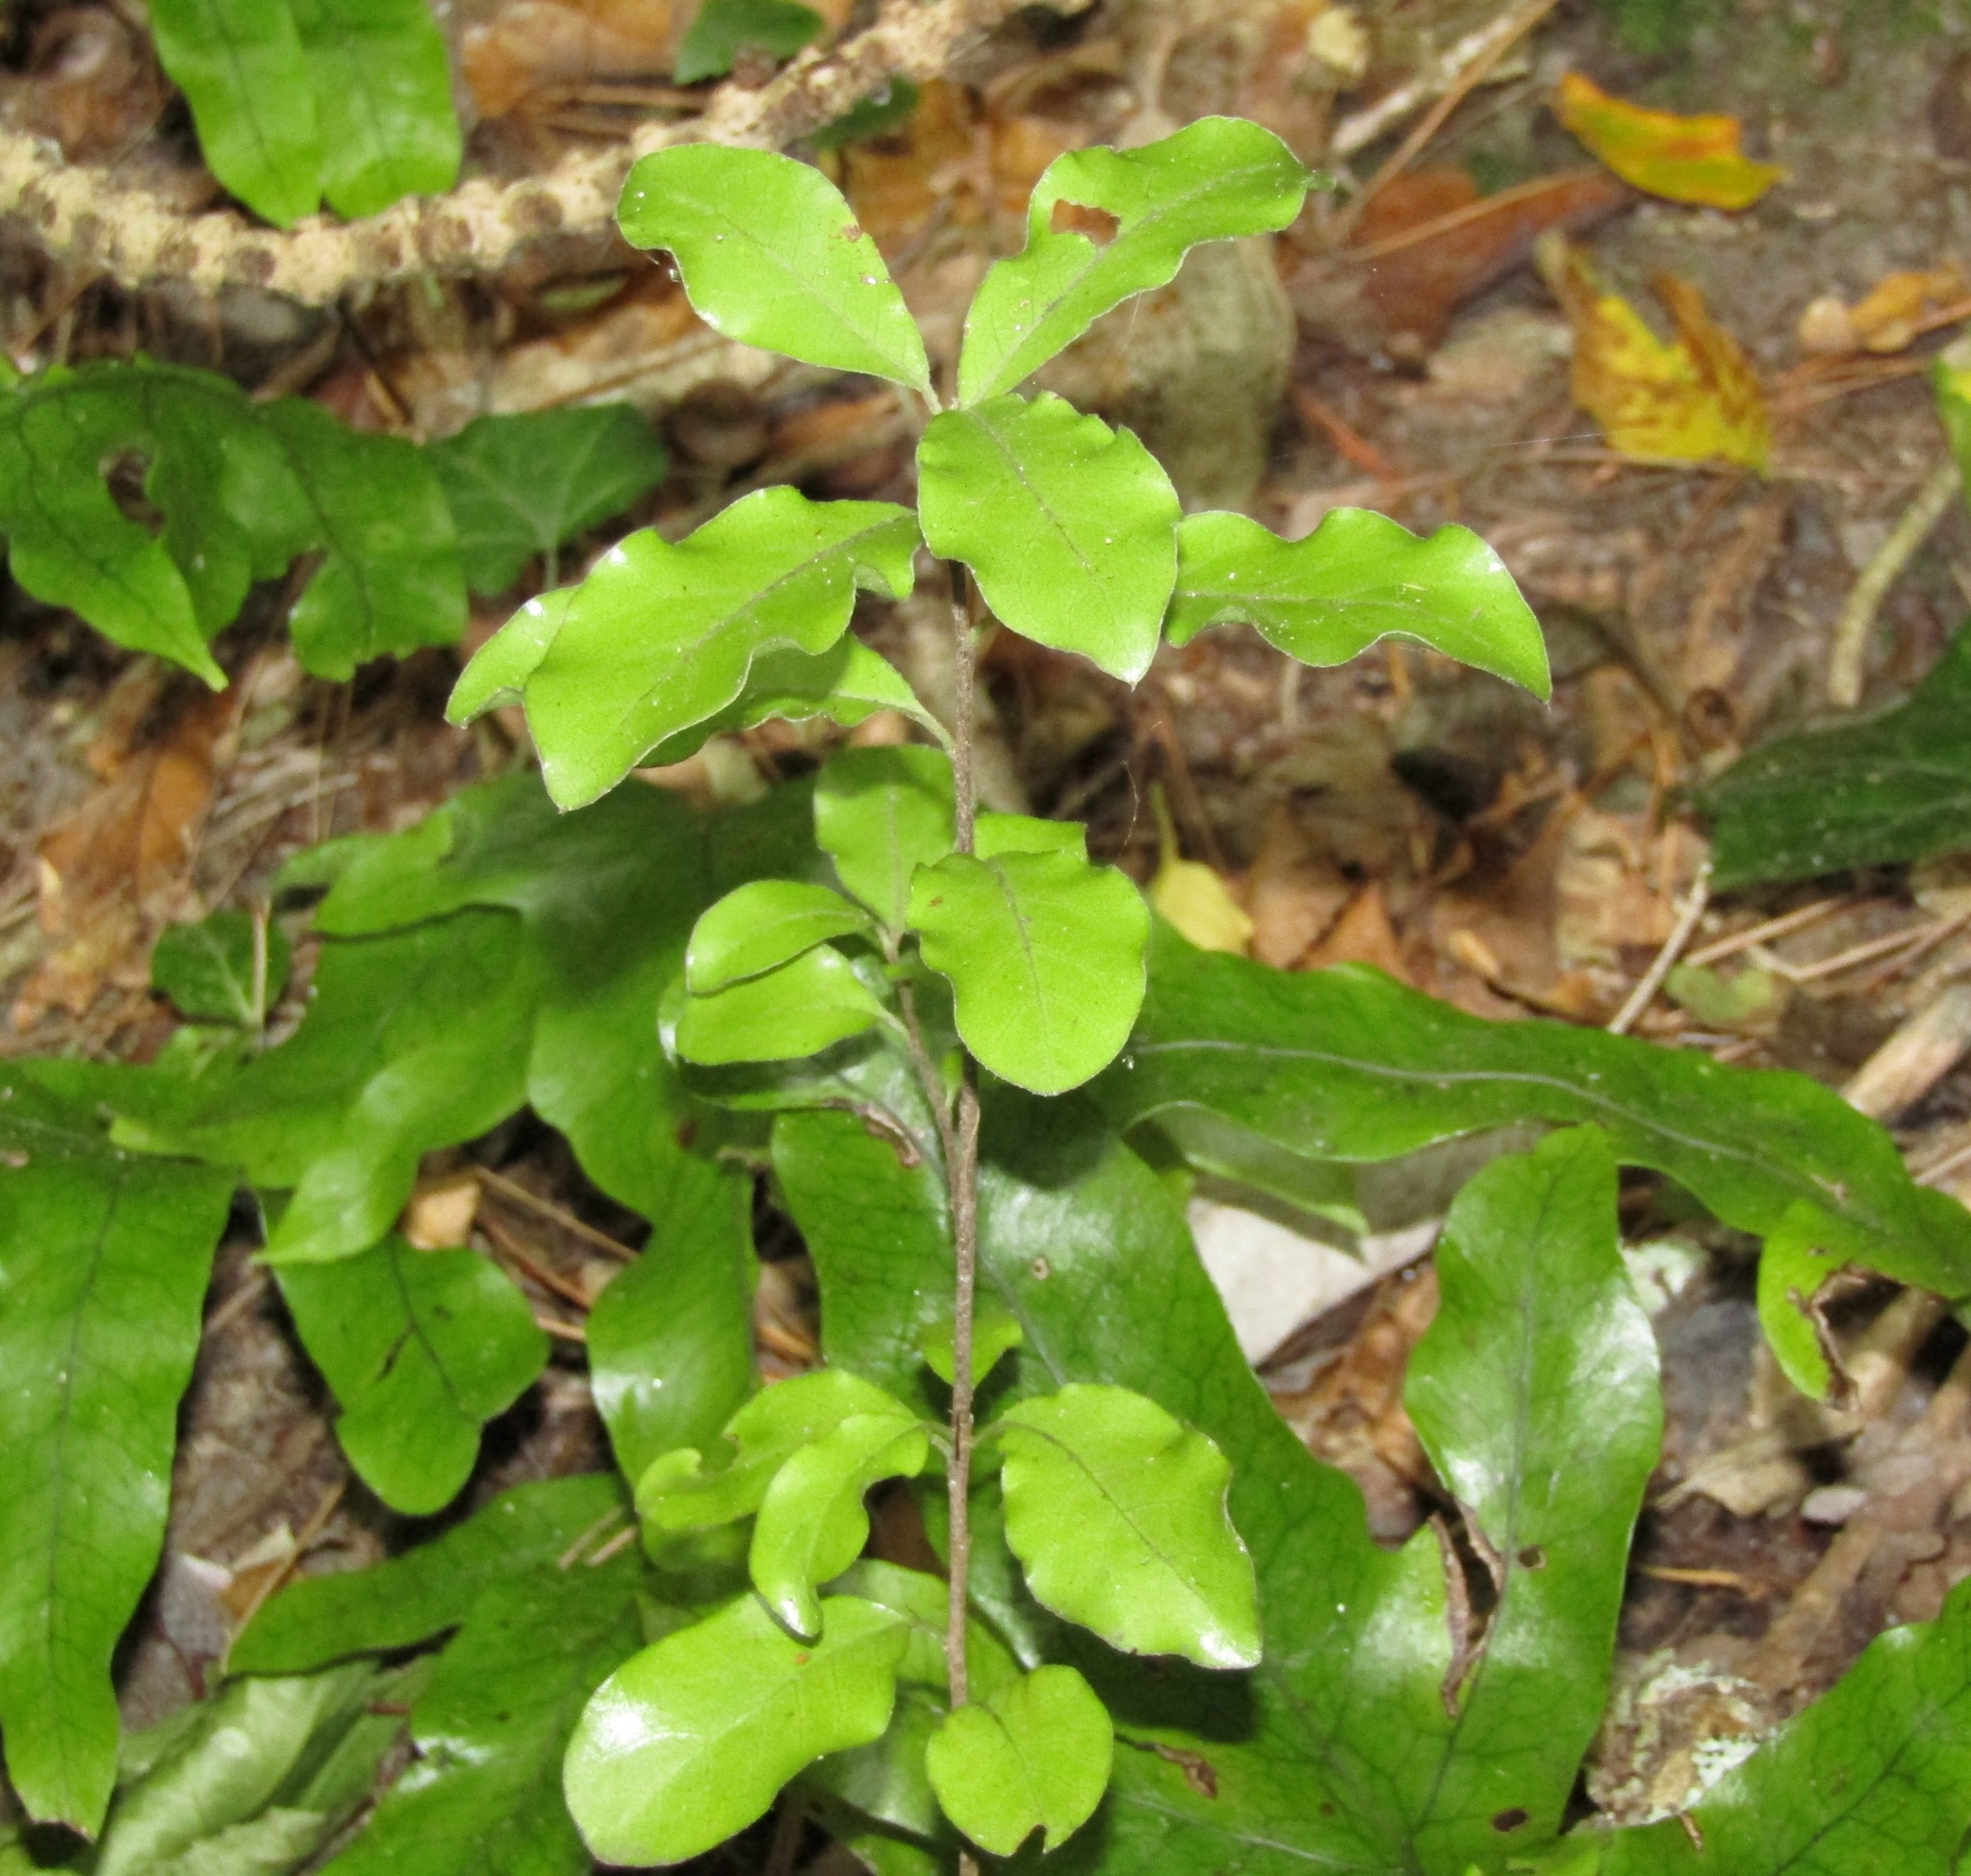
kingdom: Plantae
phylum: Tracheophyta
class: Magnoliopsida
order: Apiales
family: Pittosporaceae
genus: Pittosporum
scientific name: Pittosporum tenuifolium
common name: Kohuhu
